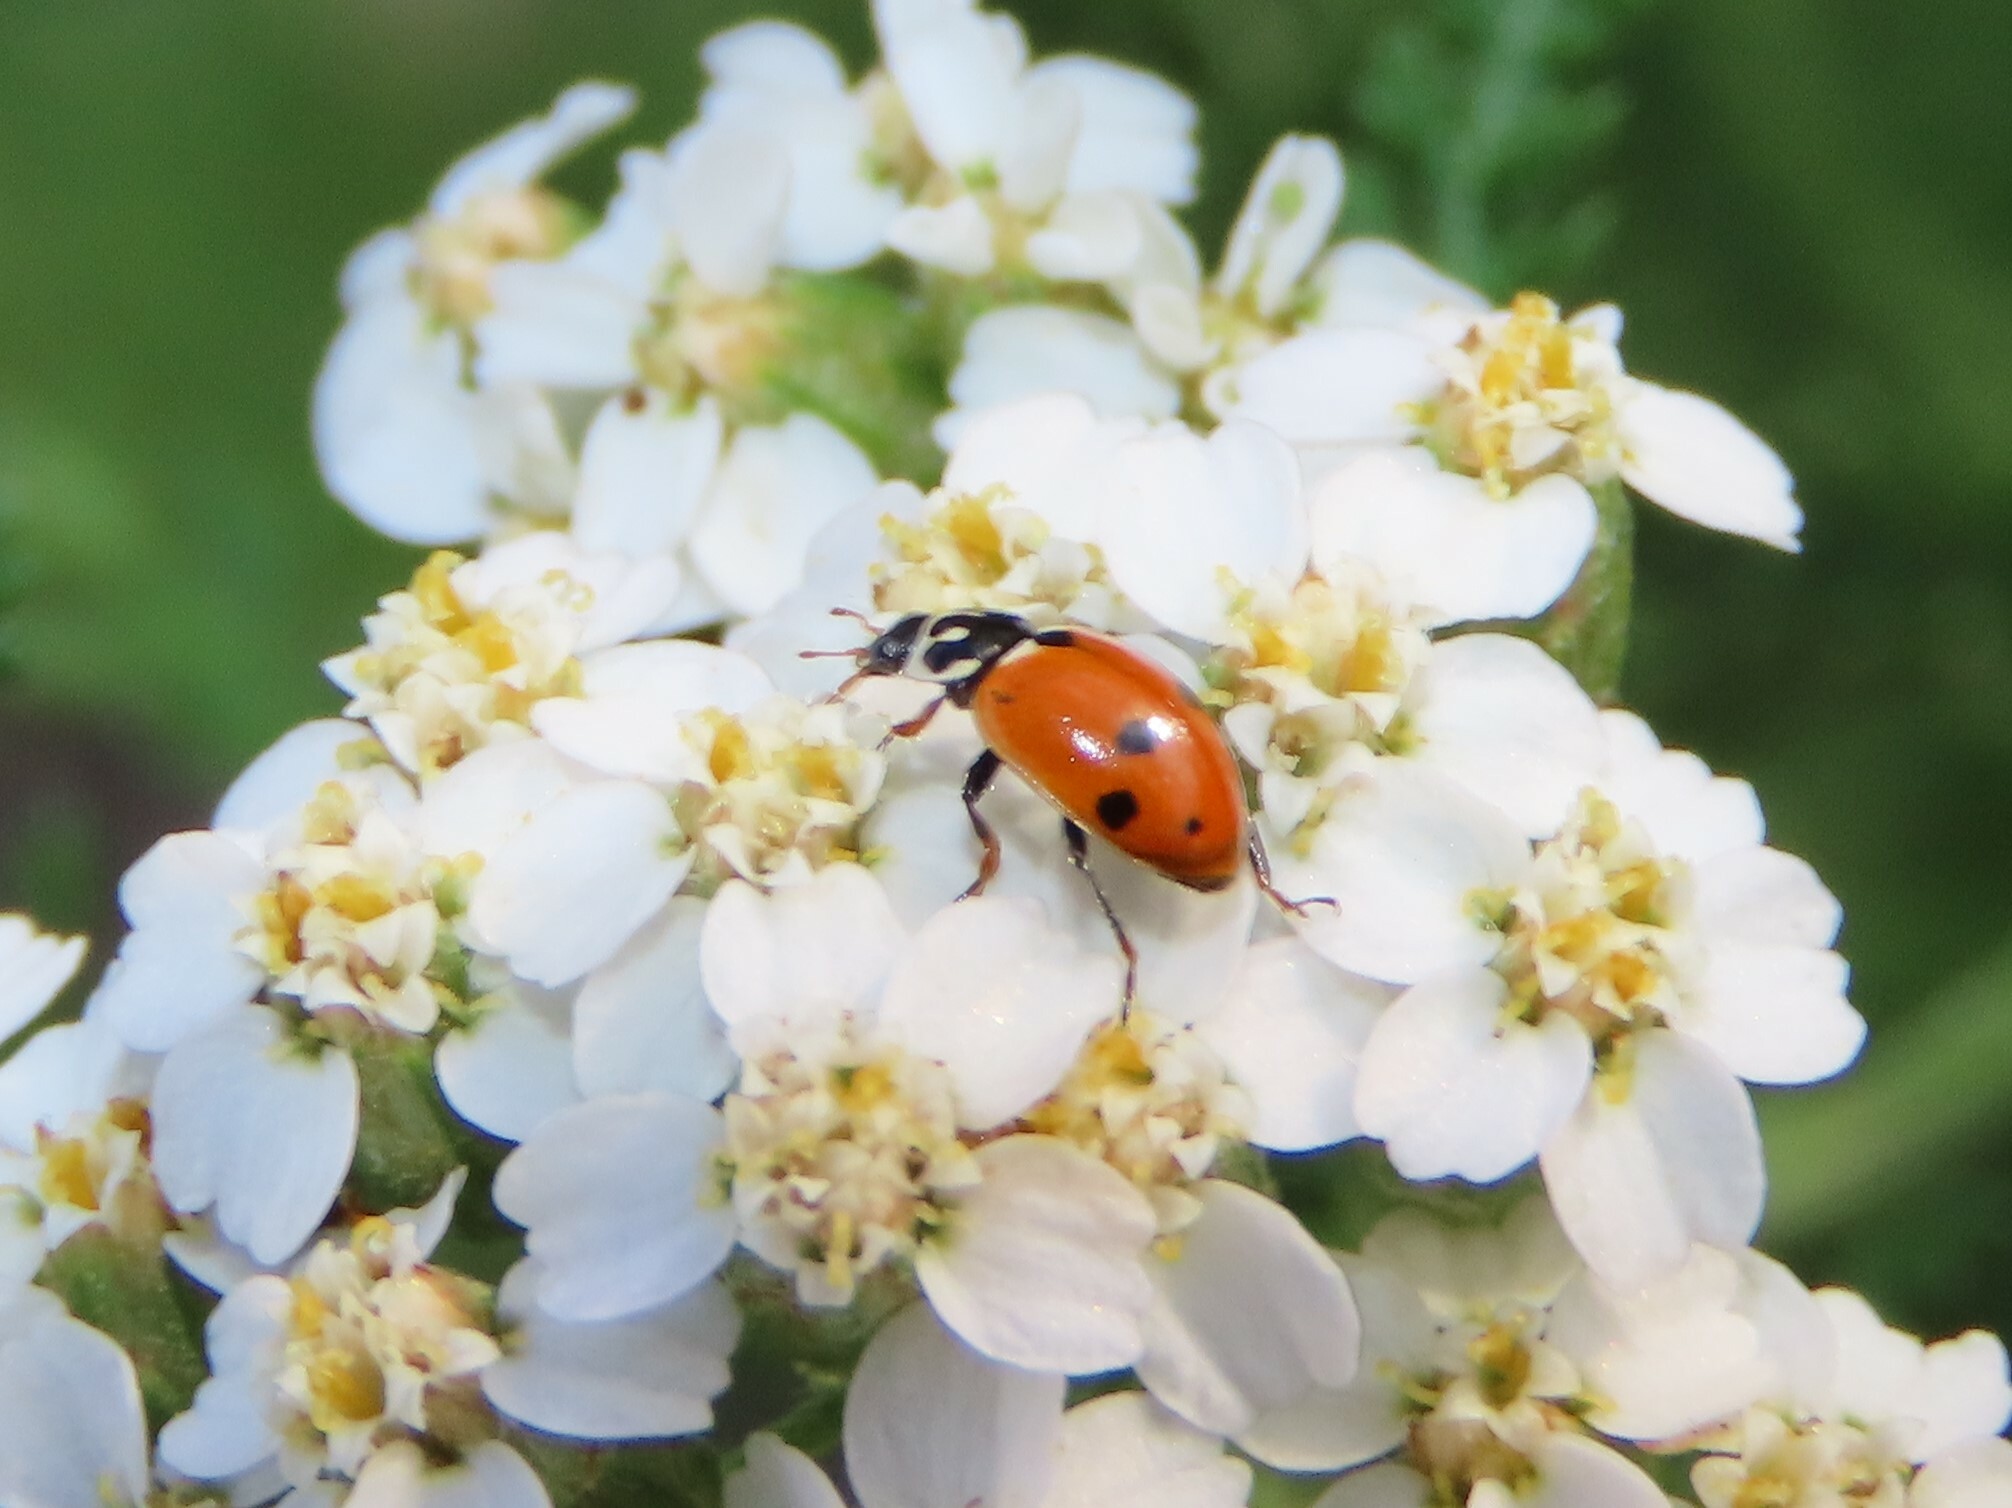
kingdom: Animalia
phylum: Arthropoda
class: Insecta
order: Coleoptera
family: Coccinellidae
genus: Hippodamia
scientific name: Hippodamia variegata
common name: Ladybird beetle
